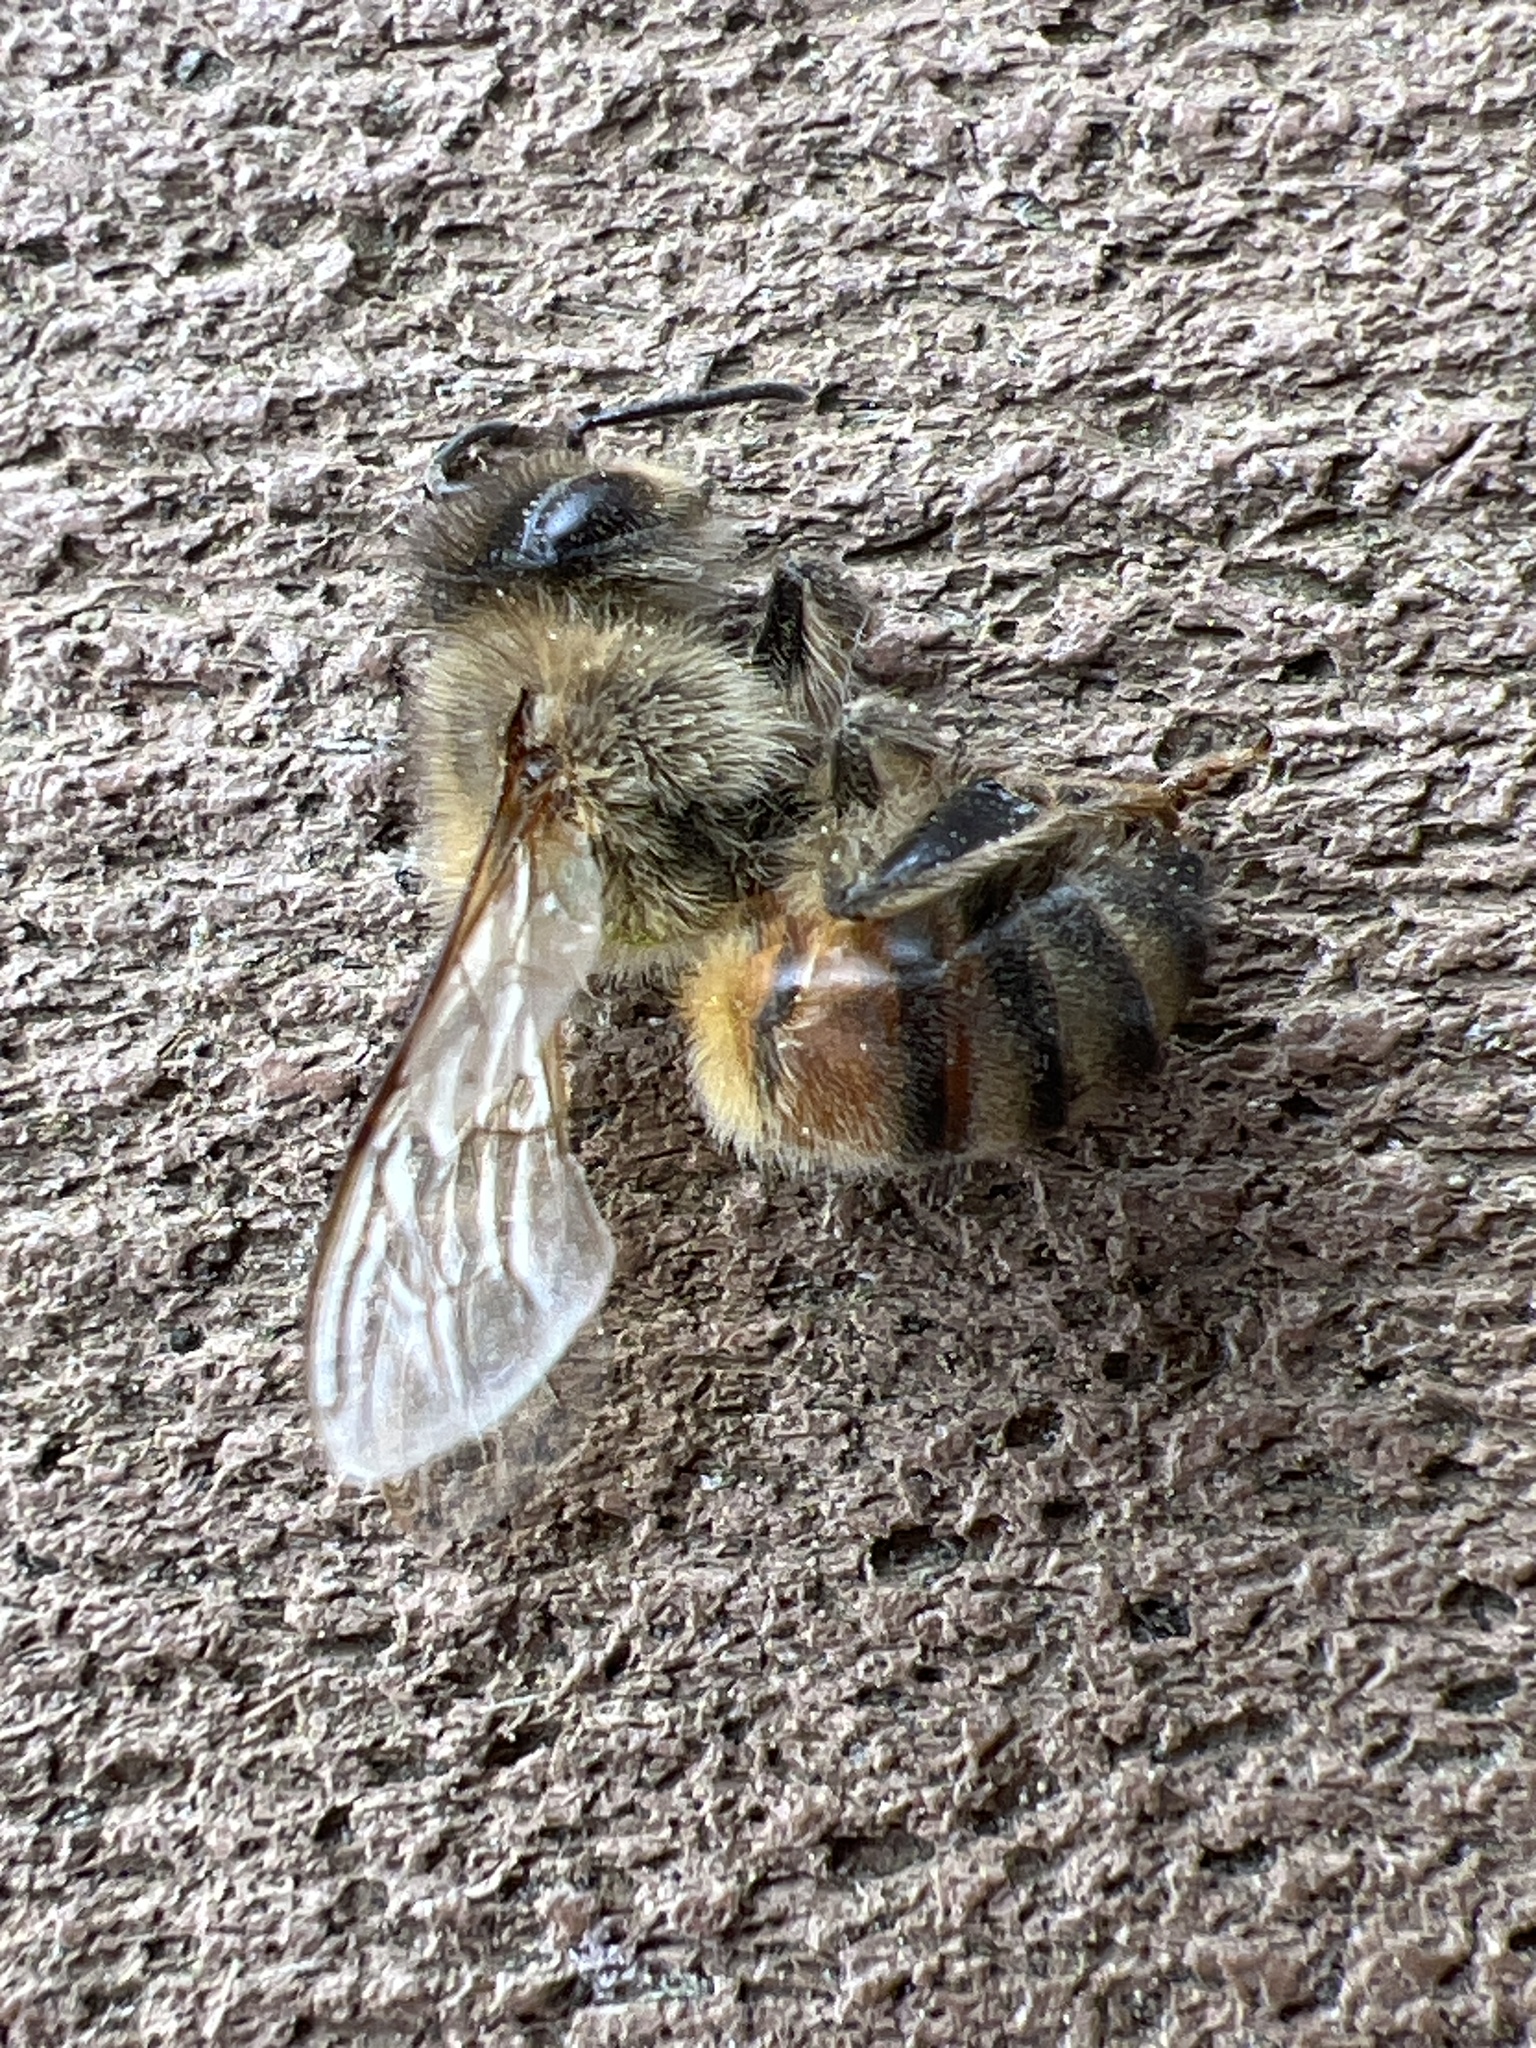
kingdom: Animalia
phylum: Arthropoda
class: Insecta
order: Hymenoptera
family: Apidae
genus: Apis
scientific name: Apis mellifera
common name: Honey bee
